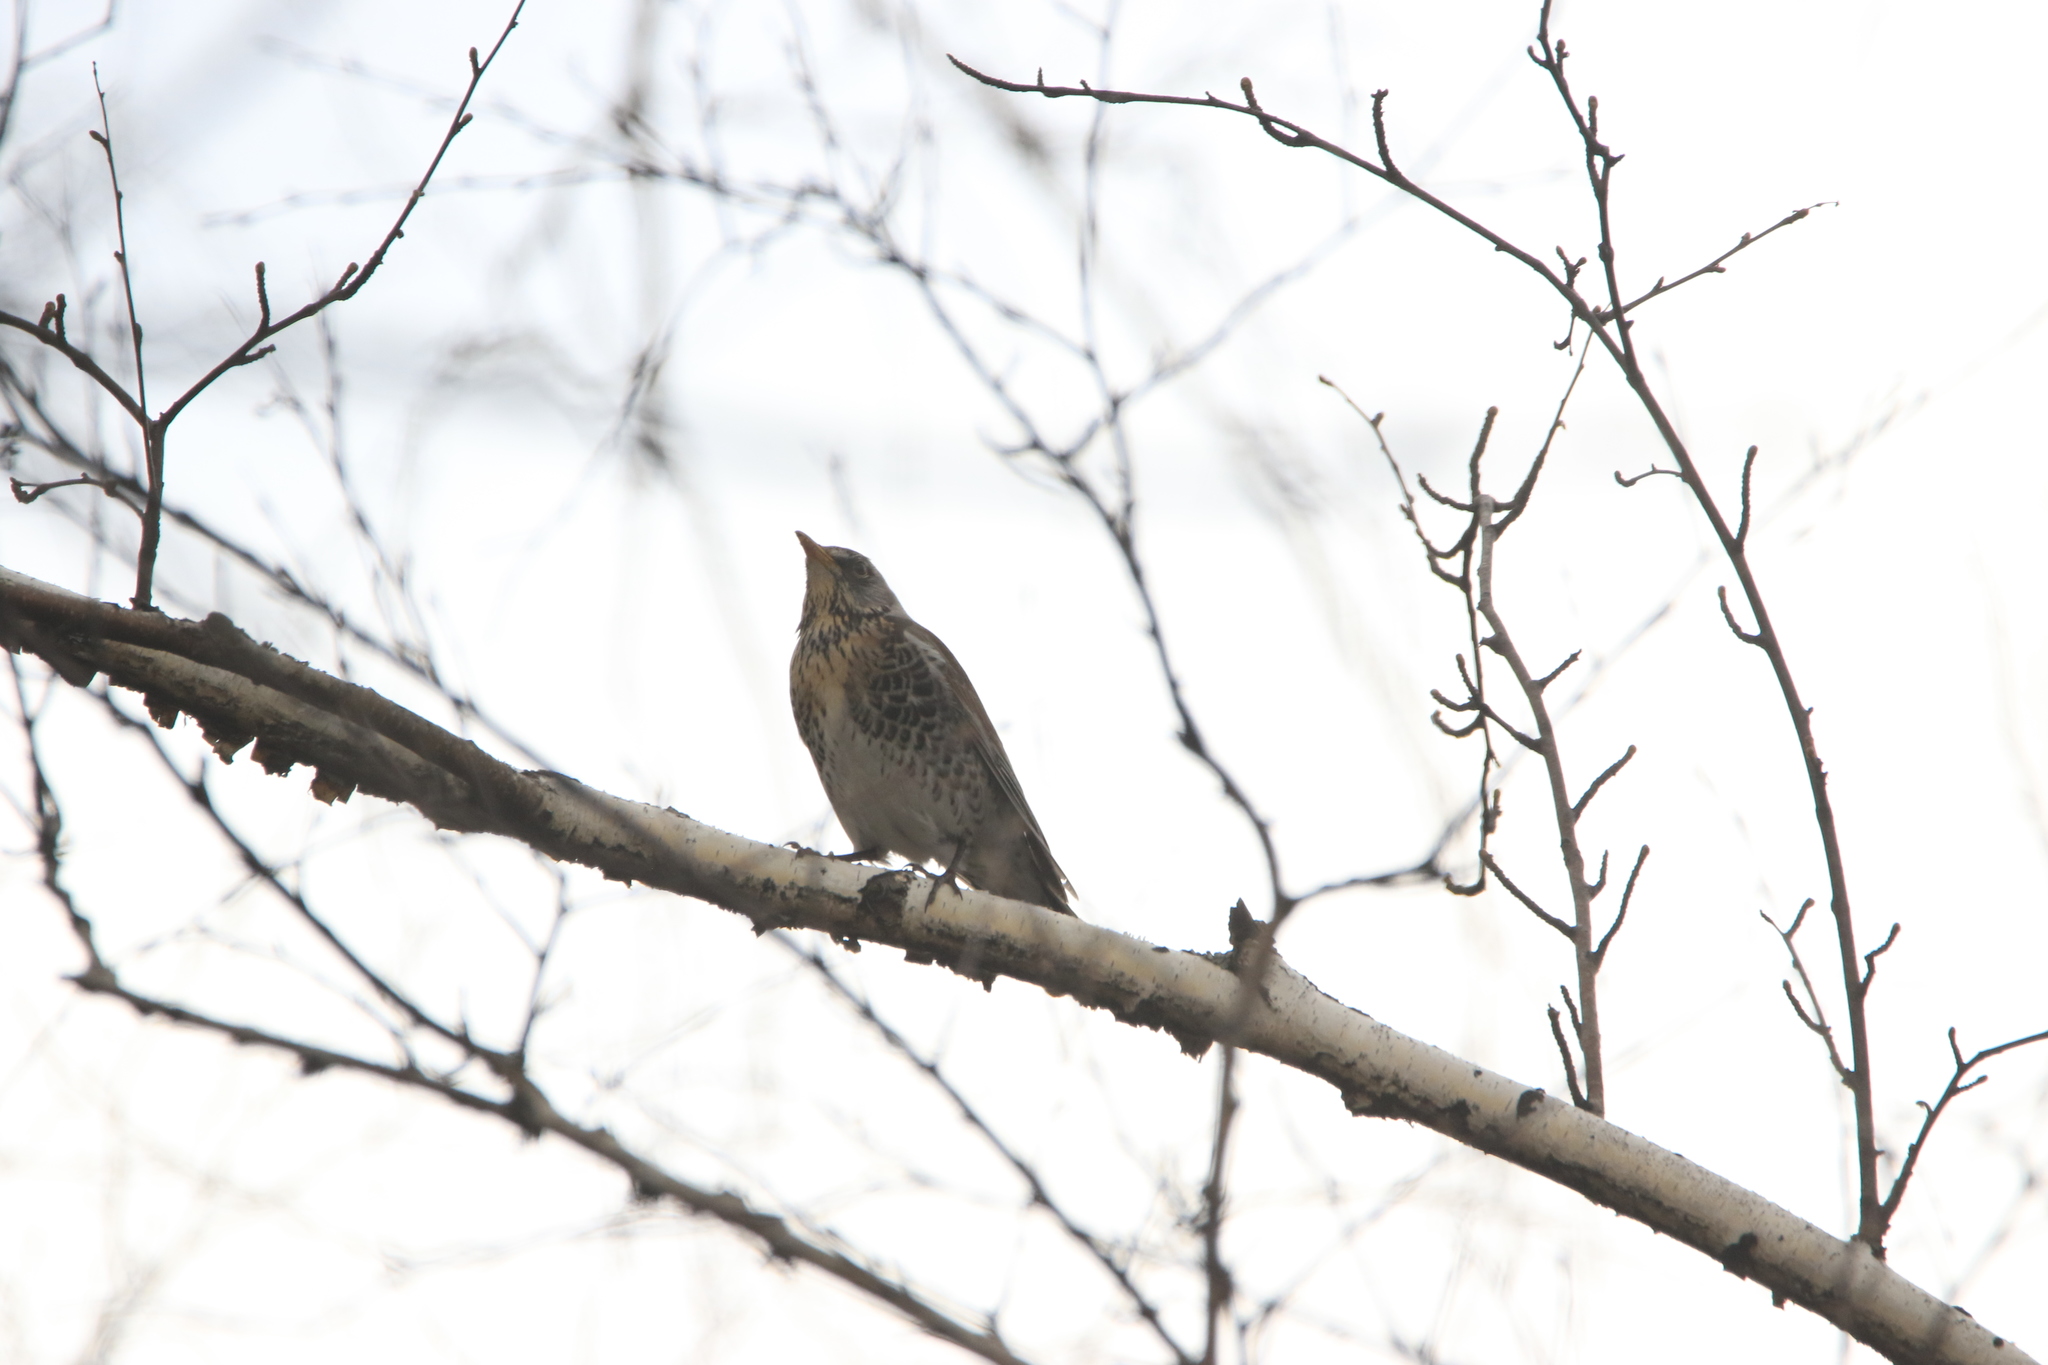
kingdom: Animalia
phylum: Chordata
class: Aves
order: Passeriformes
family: Turdidae
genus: Turdus
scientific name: Turdus pilaris
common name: Fieldfare
